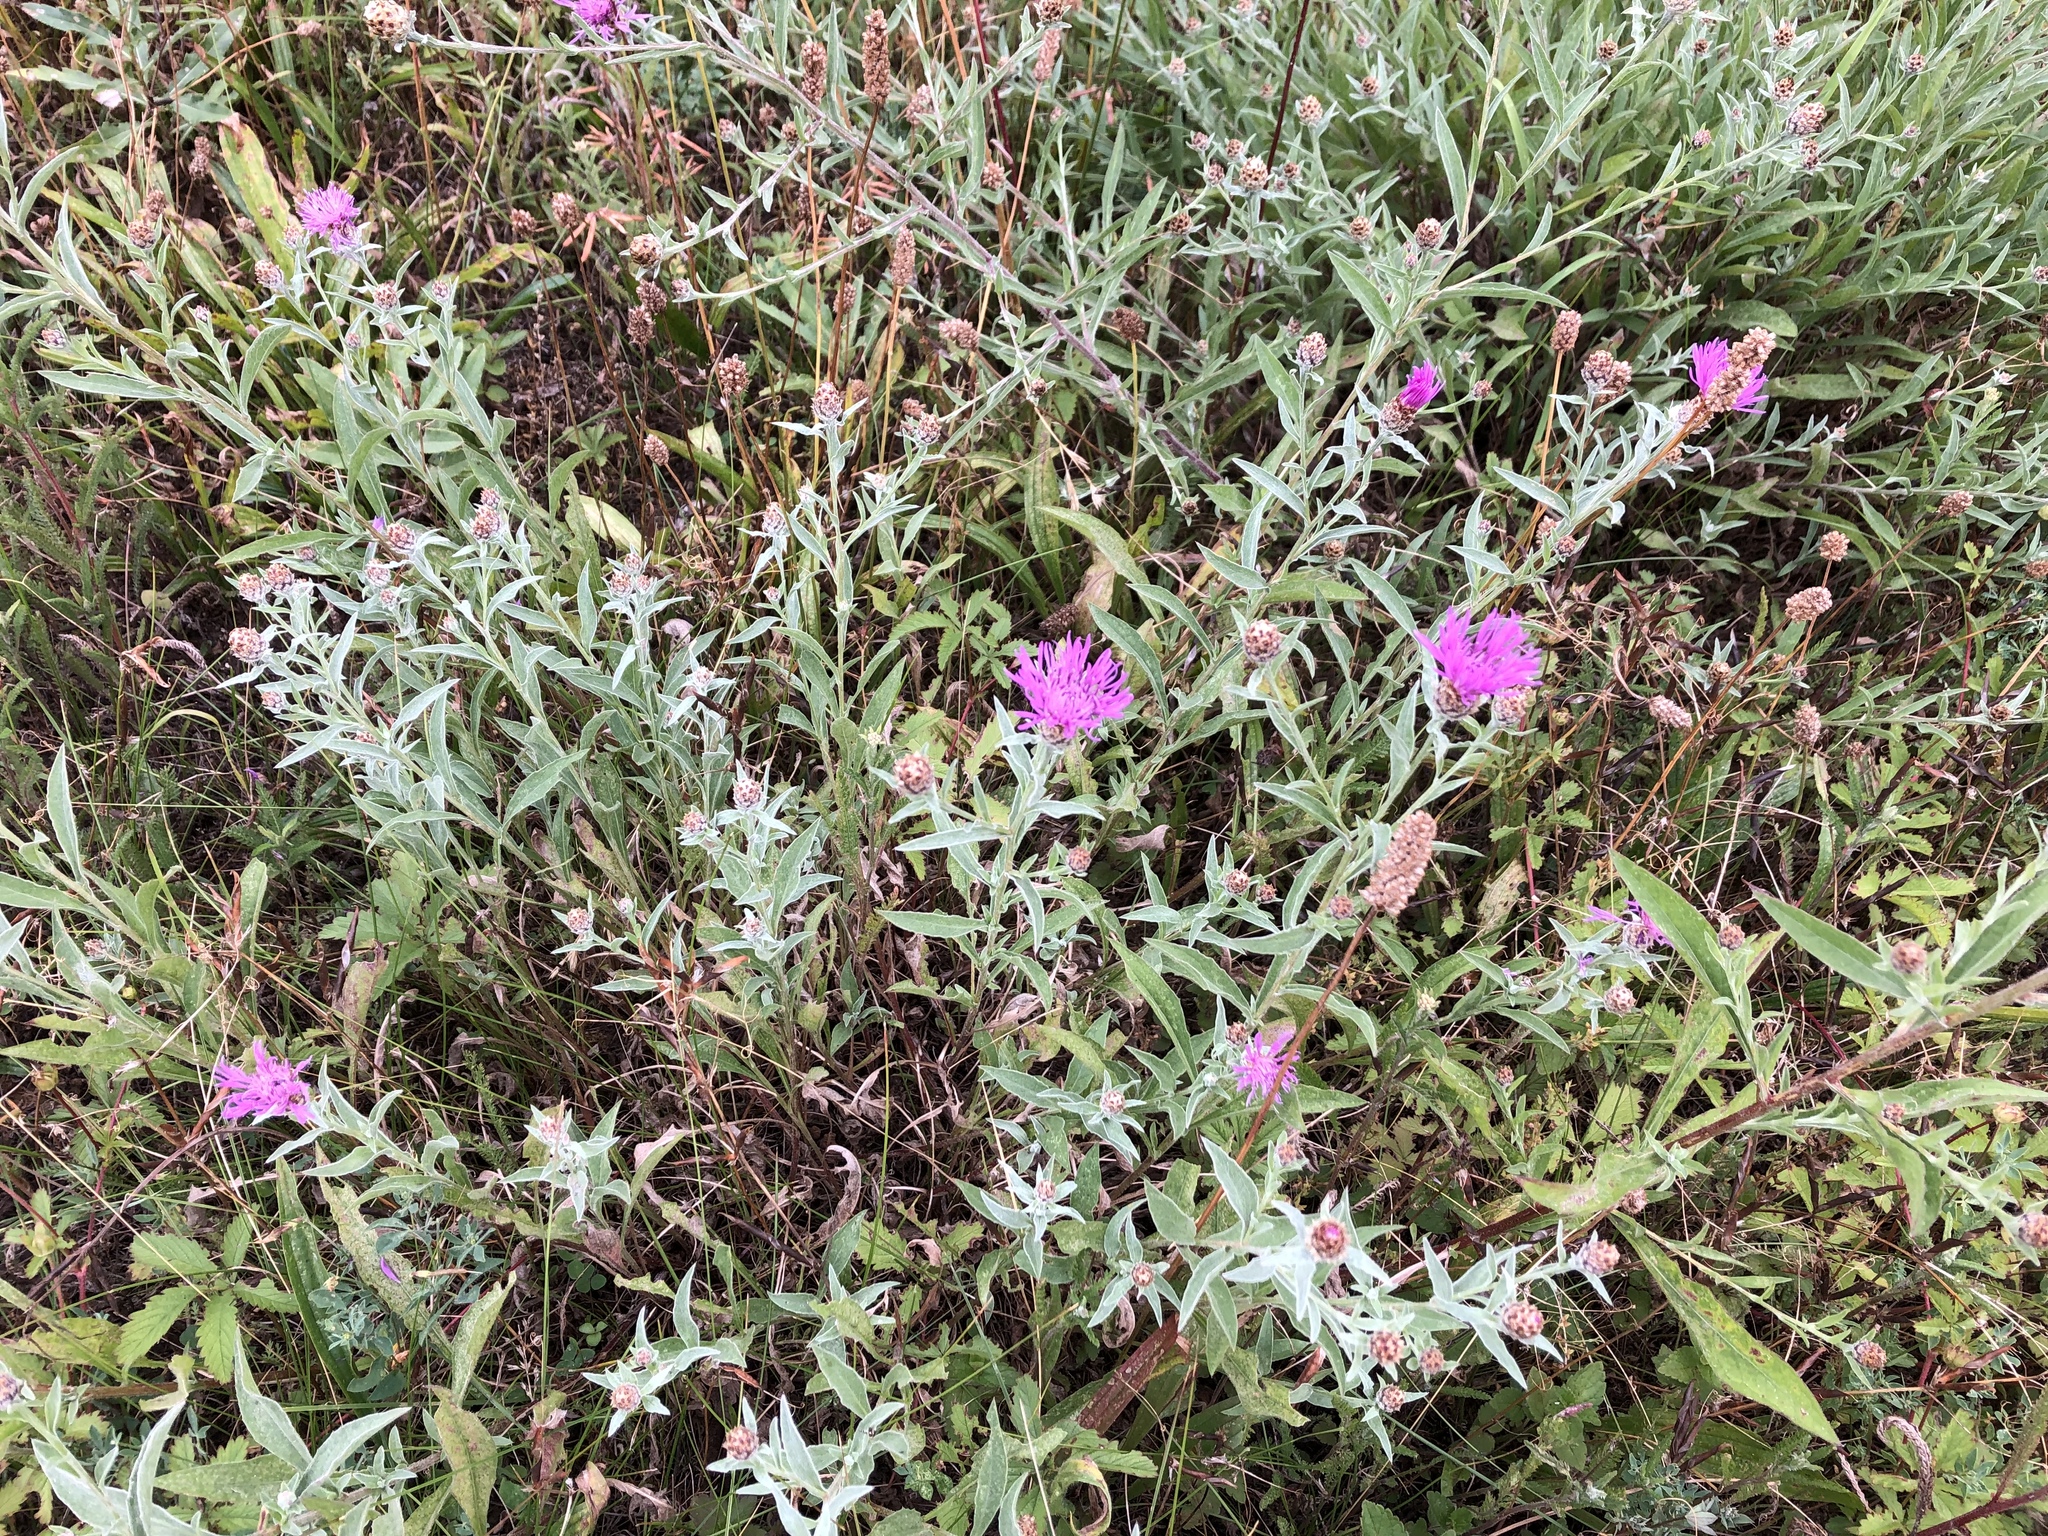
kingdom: Plantae
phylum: Tracheophyta
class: Magnoliopsida
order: Asterales
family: Asteraceae
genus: Centaurea
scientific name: Centaurea jacea
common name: Brown knapweed
